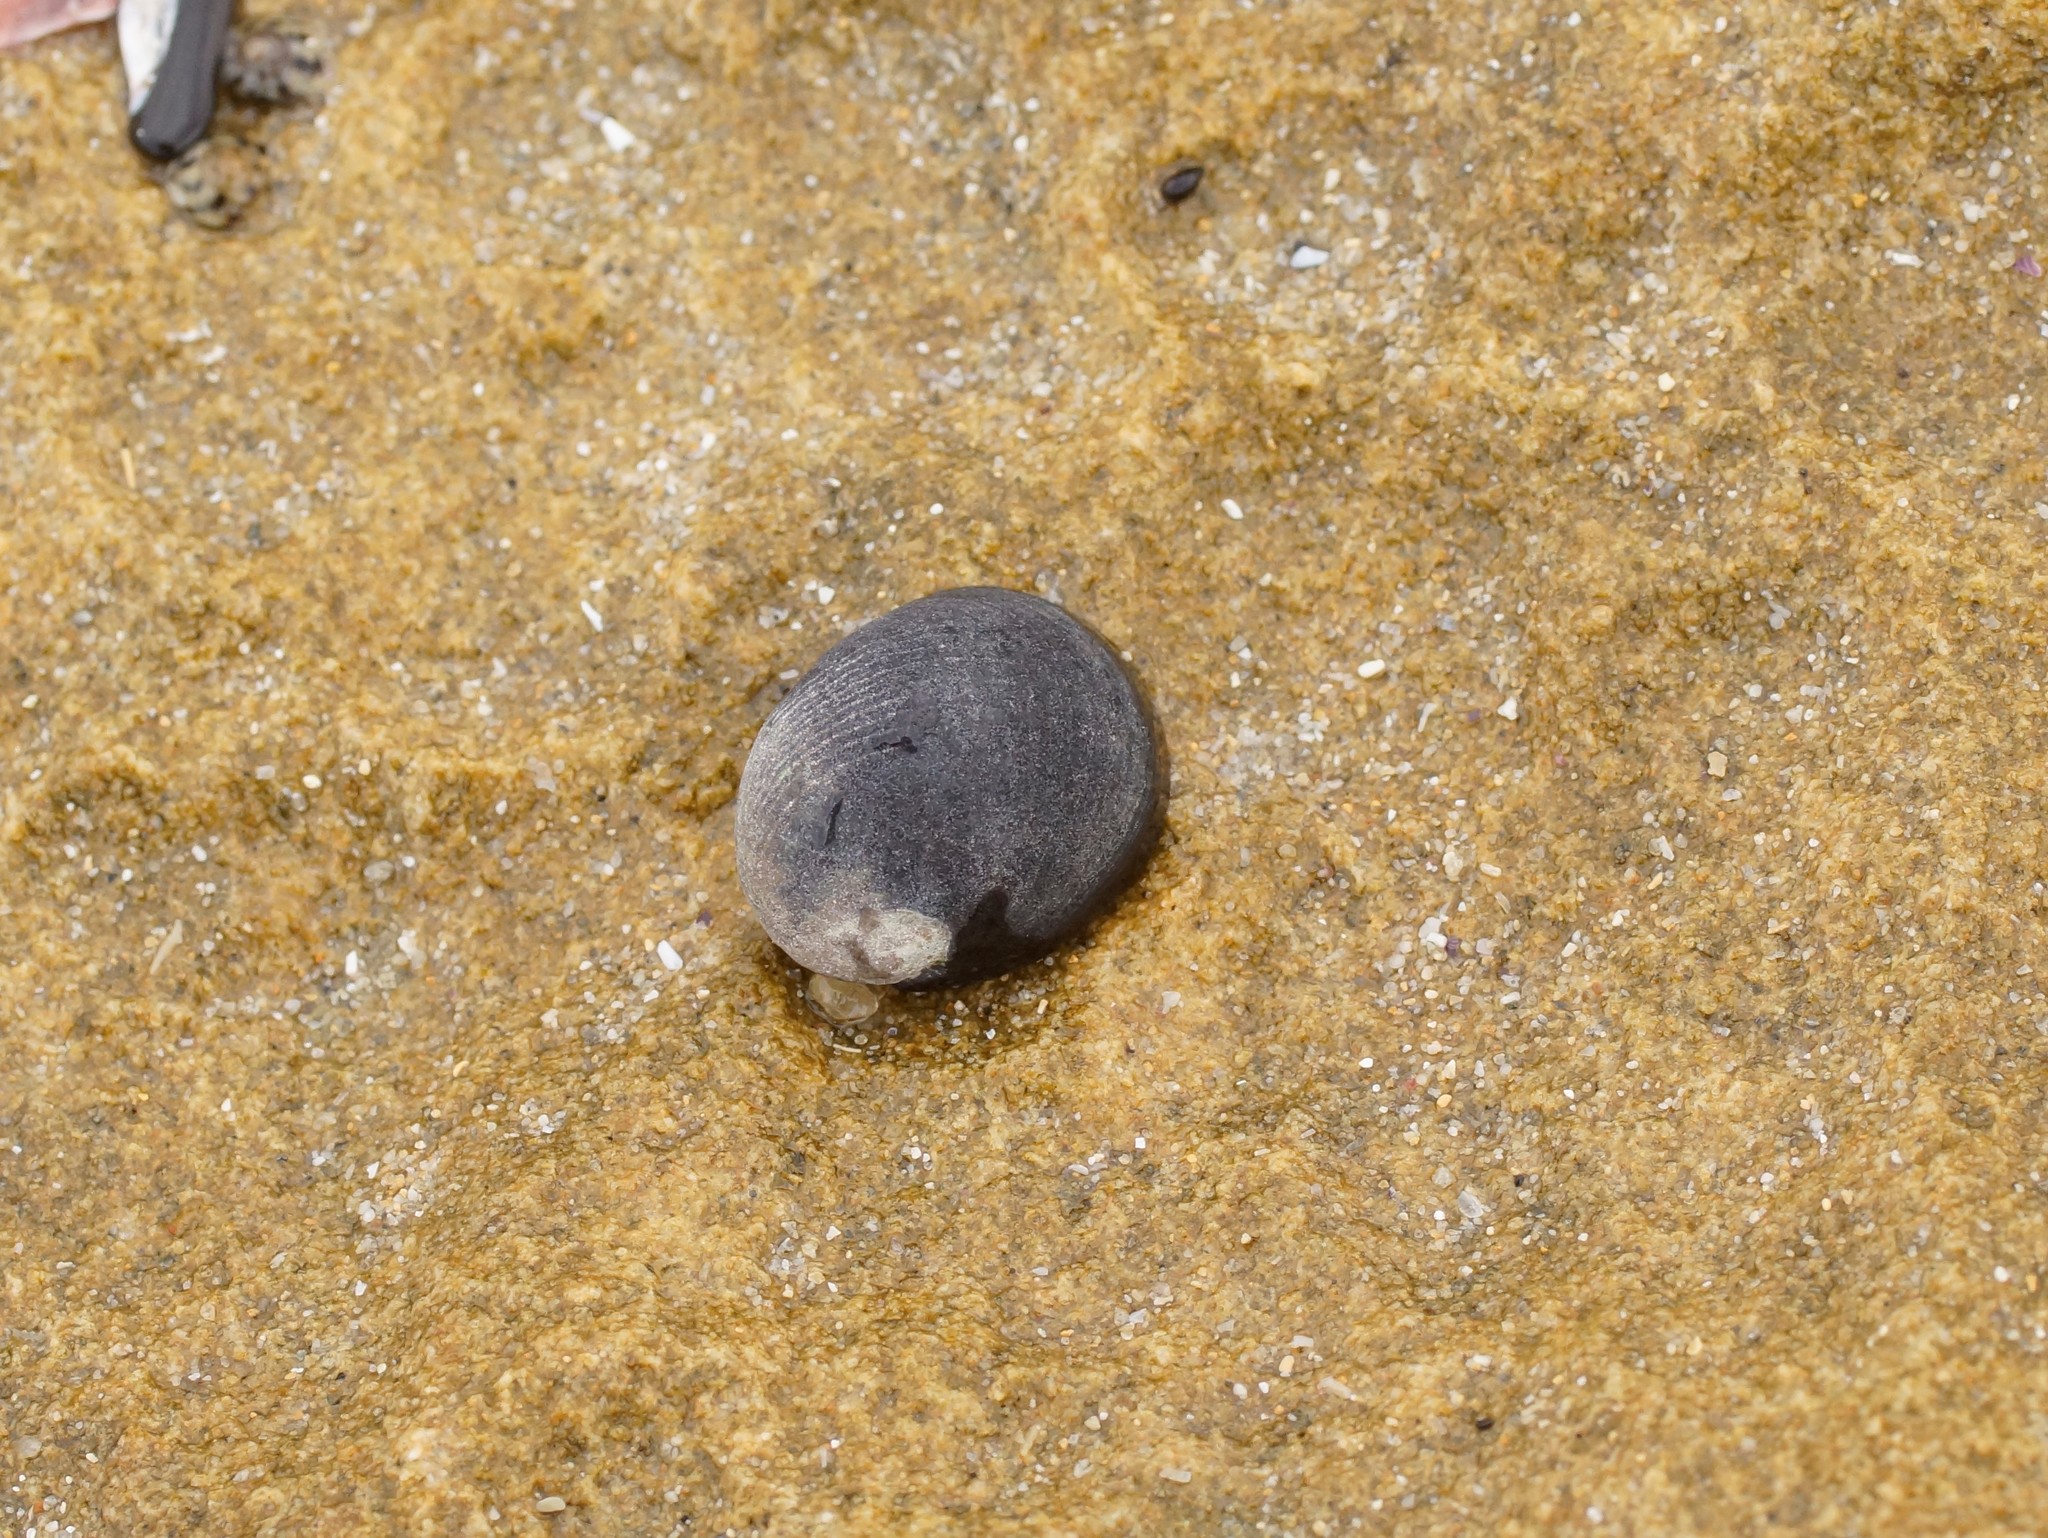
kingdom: Animalia
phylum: Mollusca
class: Gastropoda
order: Cycloneritida
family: Neritidae
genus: Nerita
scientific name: Nerita atramentosa
